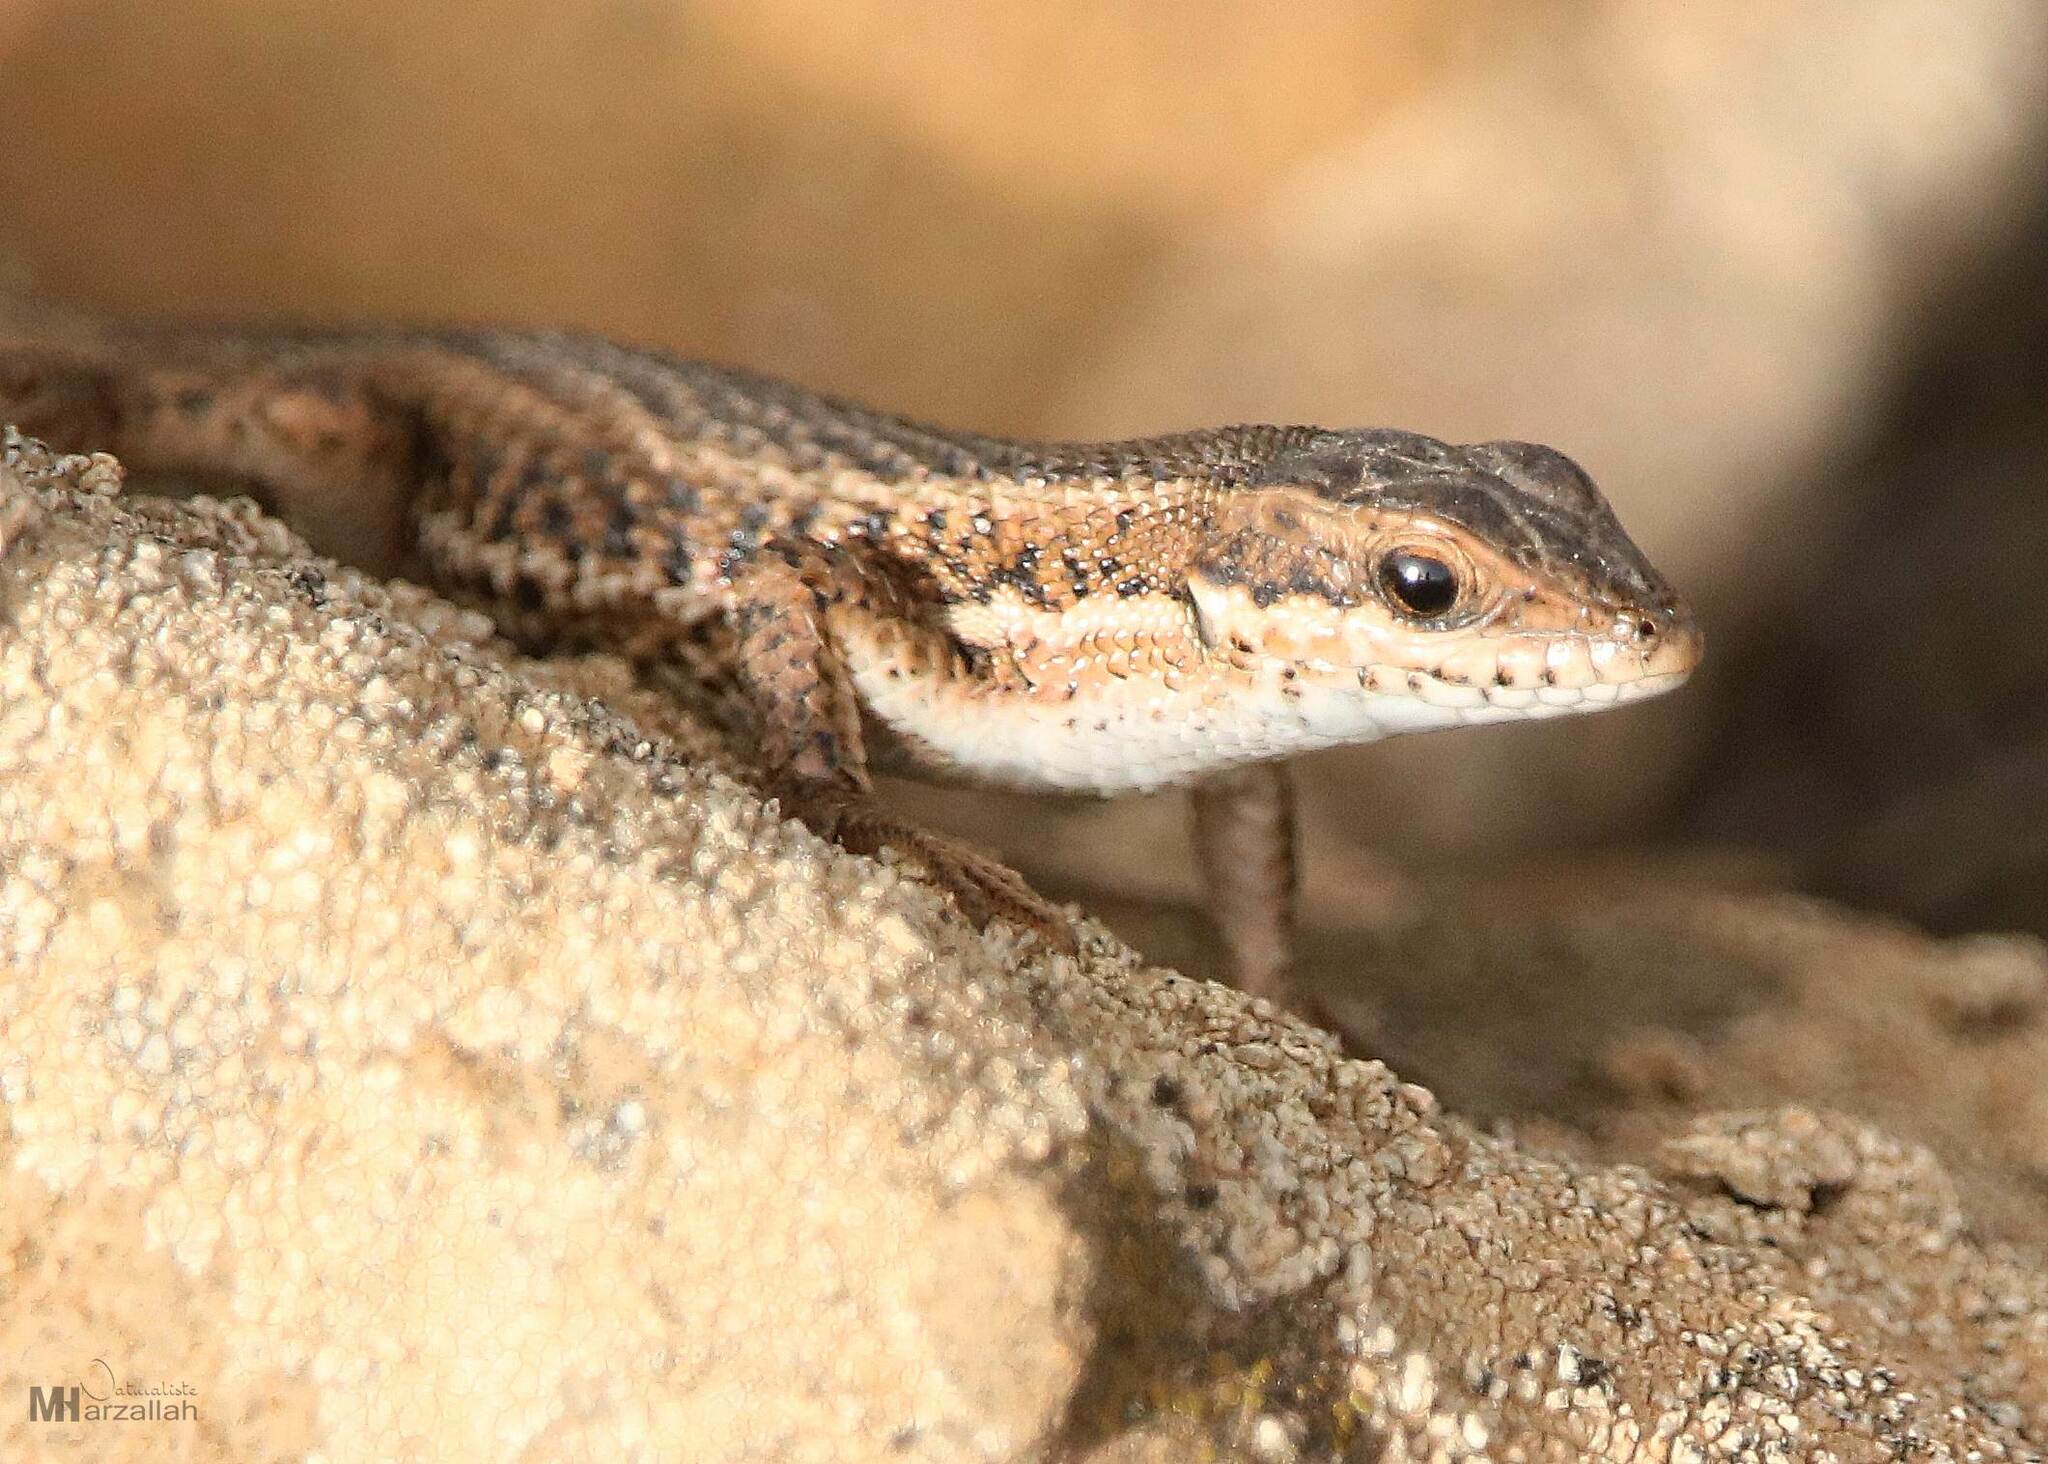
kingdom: Animalia
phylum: Chordata
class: Squamata
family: Lacertidae
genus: Ophisops
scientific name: Ophisops occidentalis
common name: Western snake-eyed lizard
